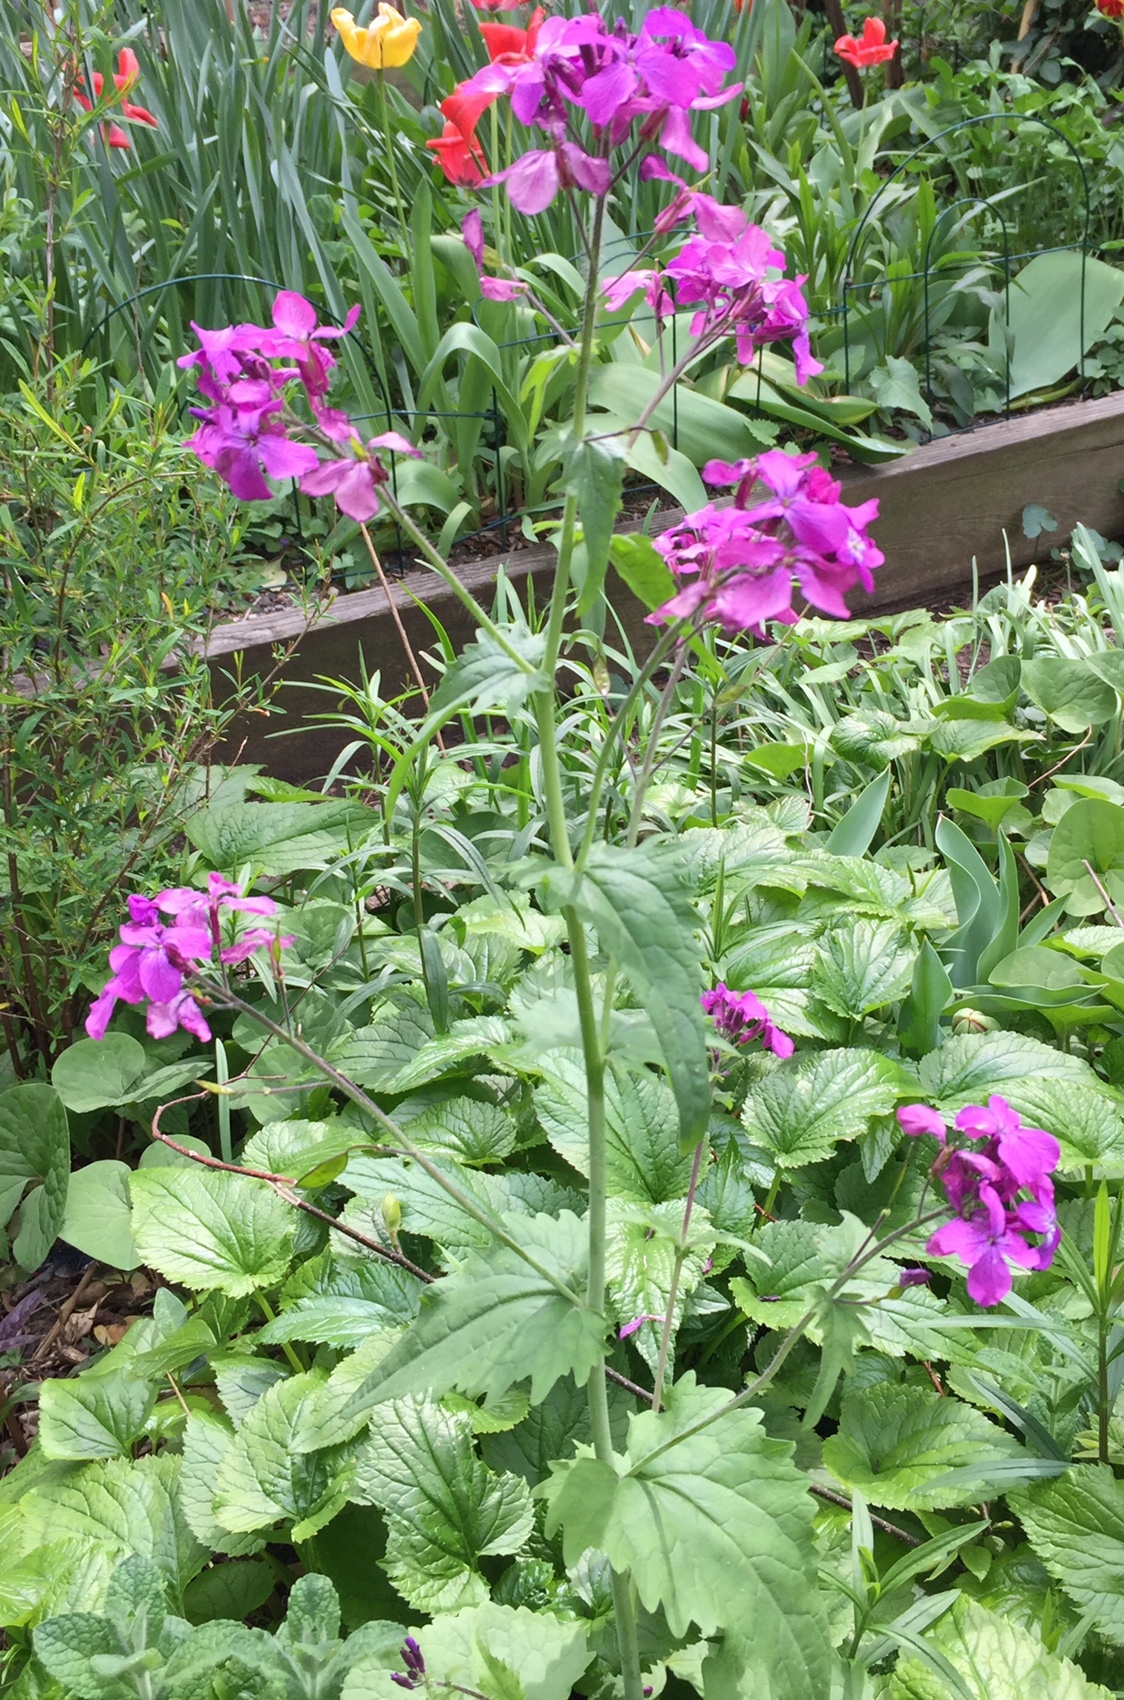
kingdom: Plantae
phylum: Tracheophyta
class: Magnoliopsida
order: Brassicales
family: Brassicaceae
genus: Lunaria
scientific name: Lunaria annua
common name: Honesty
